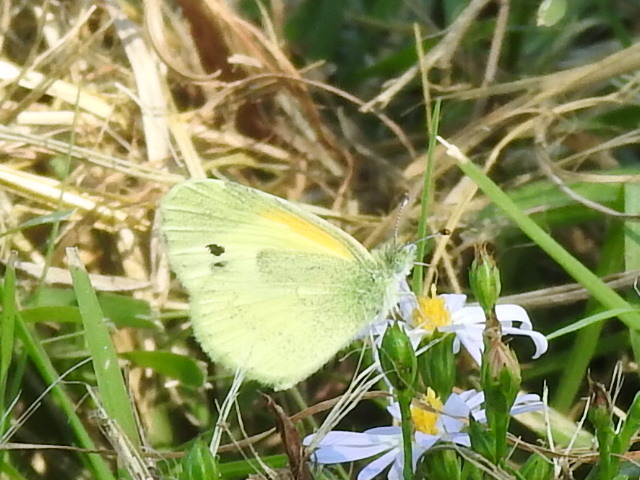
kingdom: Animalia
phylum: Arthropoda
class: Insecta
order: Lepidoptera
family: Pieridae
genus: Nathalis
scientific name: Nathalis iole
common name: Dainty sulphur
